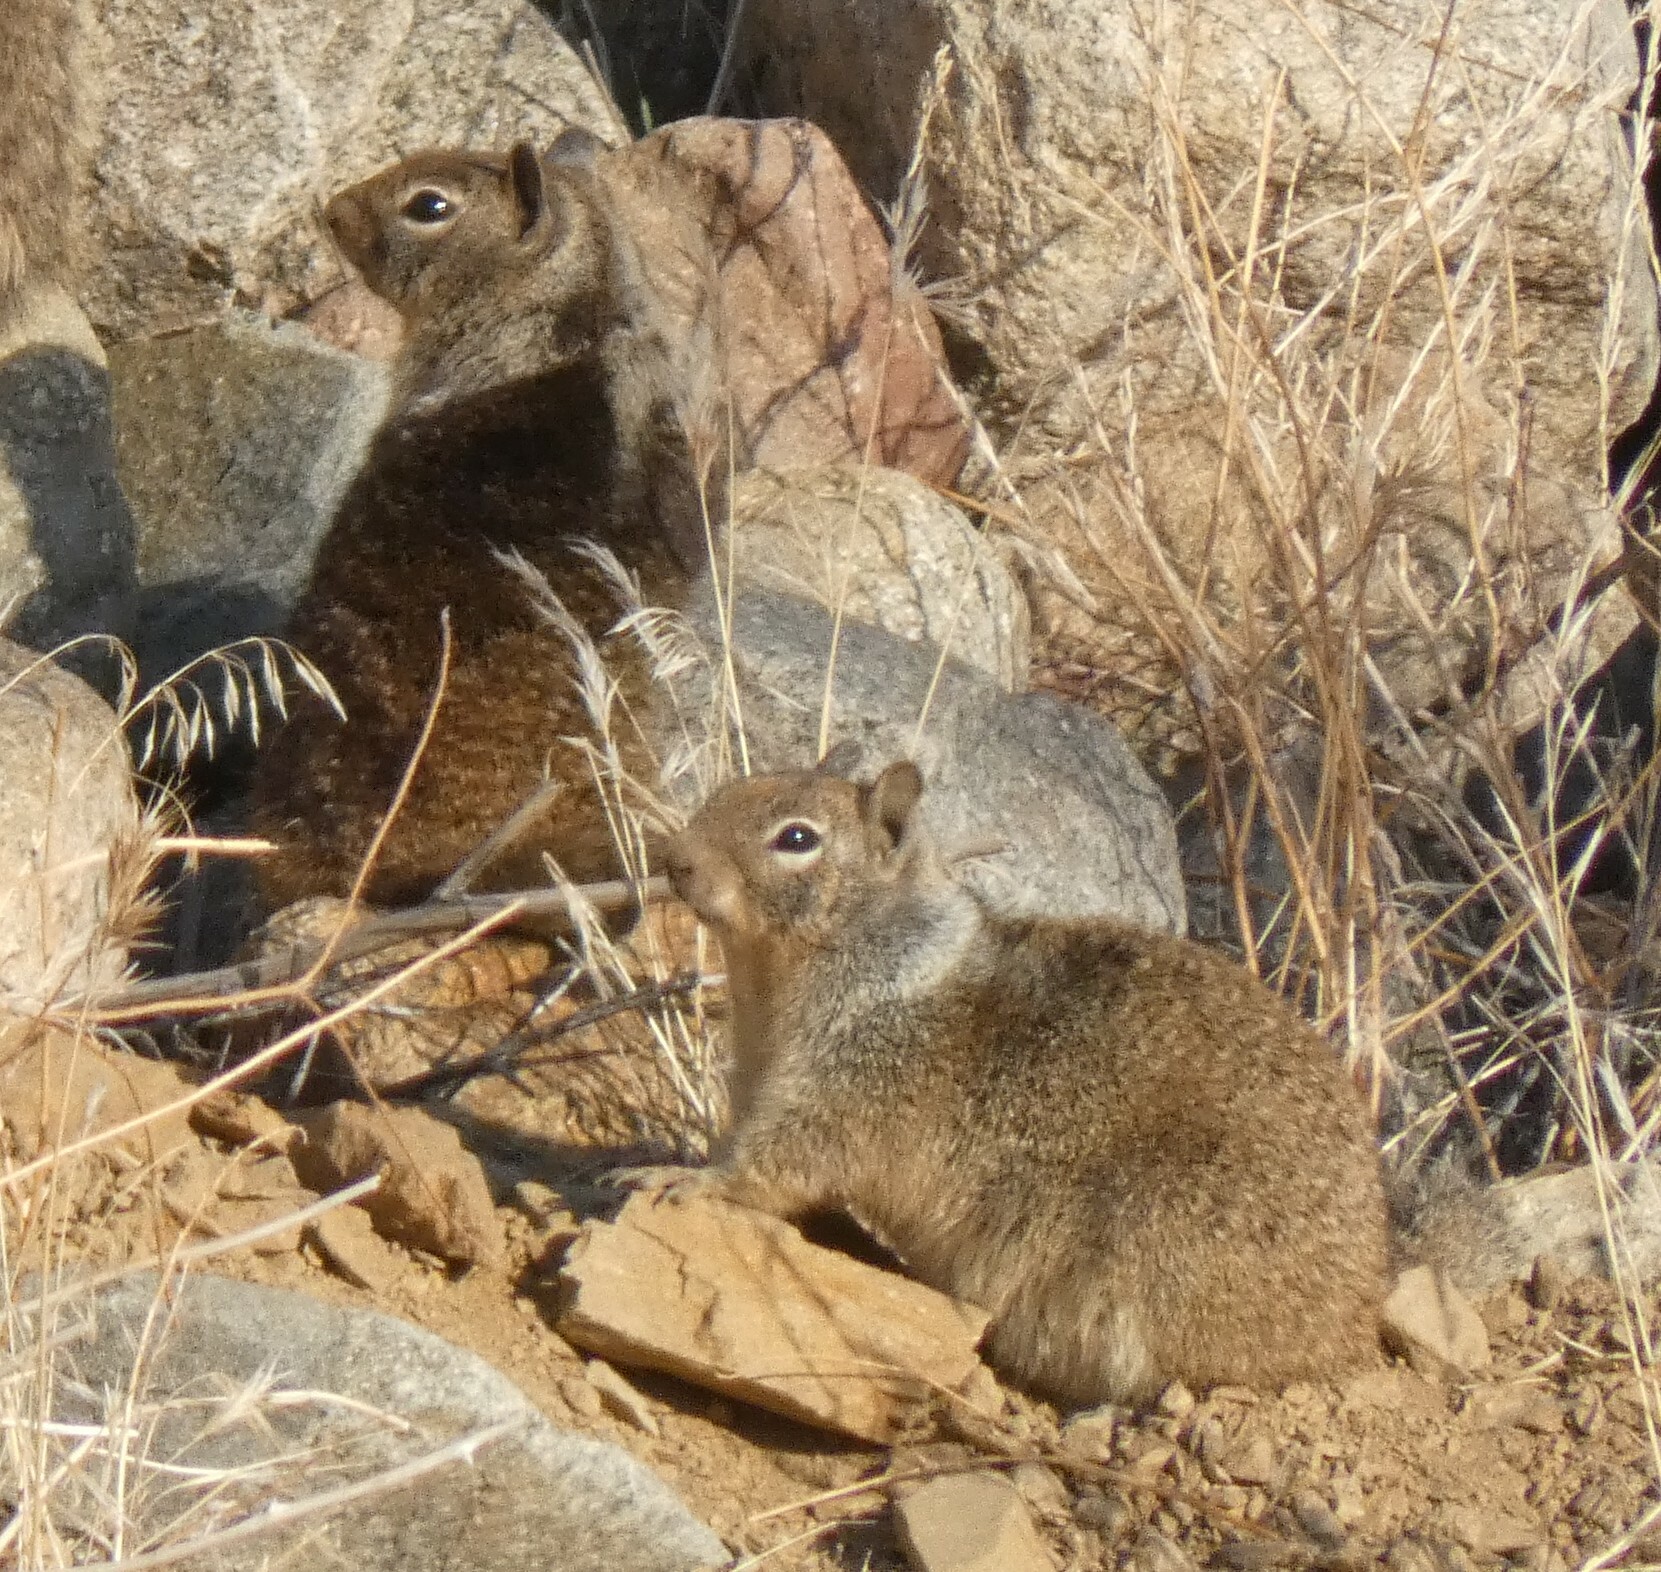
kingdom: Animalia
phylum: Chordata
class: Mammalia
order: Rodentia
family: Sciuridae
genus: Otospermophilus
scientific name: Otospermophilus beecheyi
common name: California ground squirrel
